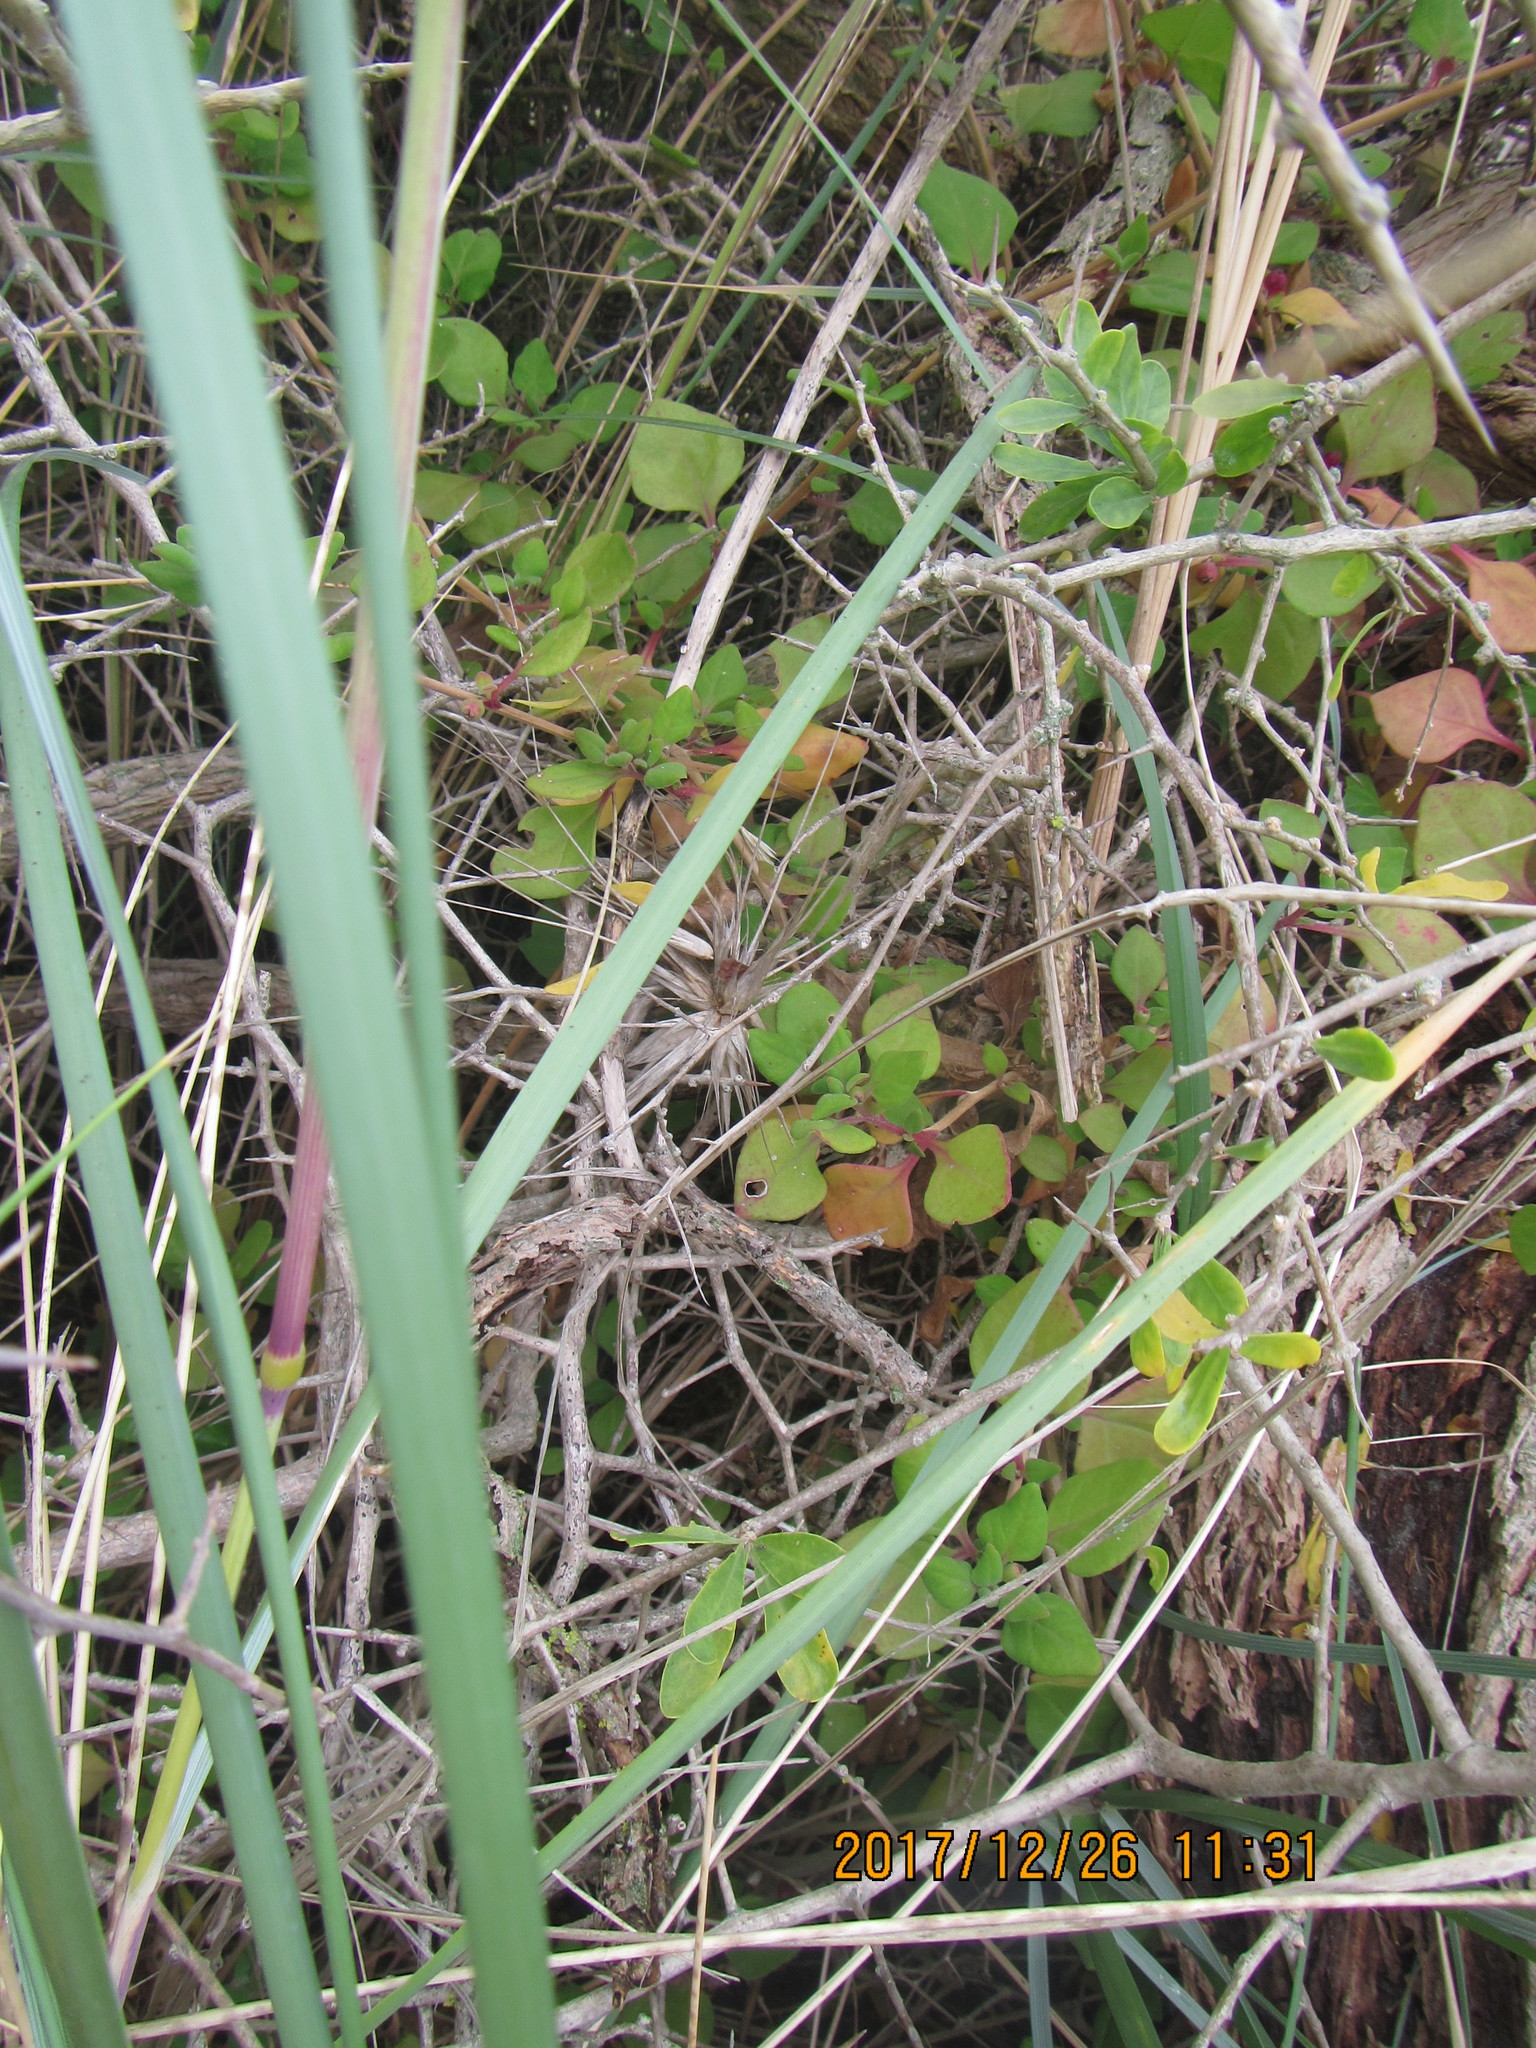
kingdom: Plantae
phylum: Tracheophyta
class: Magnoliopsida
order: Caryophyllales
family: Aizoaceae
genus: Tetragonia
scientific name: Tetragonia implexicoma
